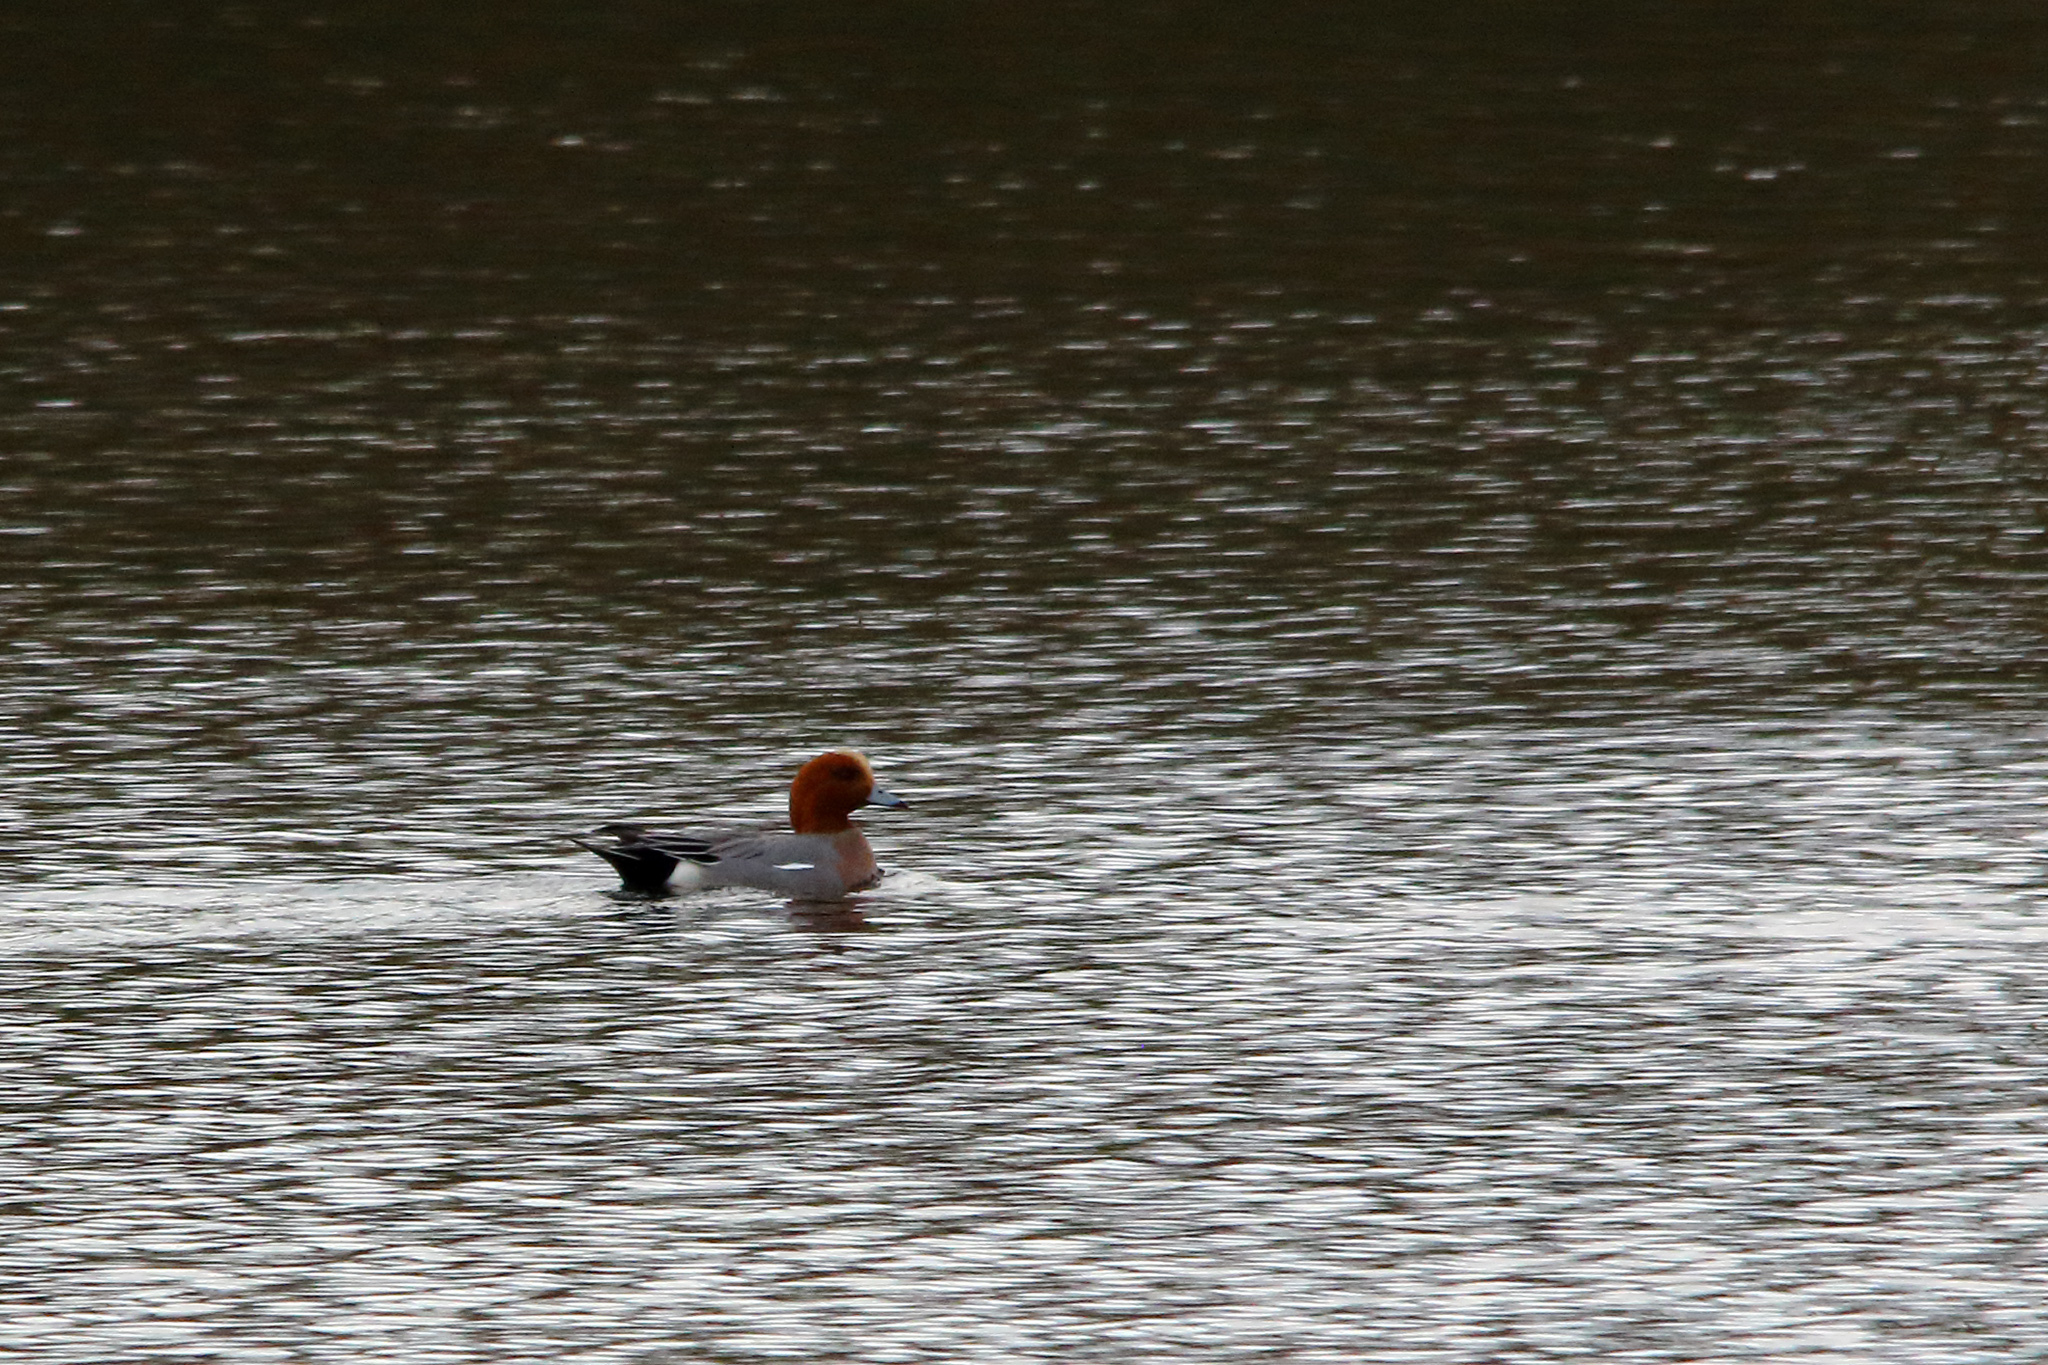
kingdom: Animalia
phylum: Chordata
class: Aves
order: Anseriformes
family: Anatidae
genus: Mareca
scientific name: Mareca penelope
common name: Eurasian wigeon
